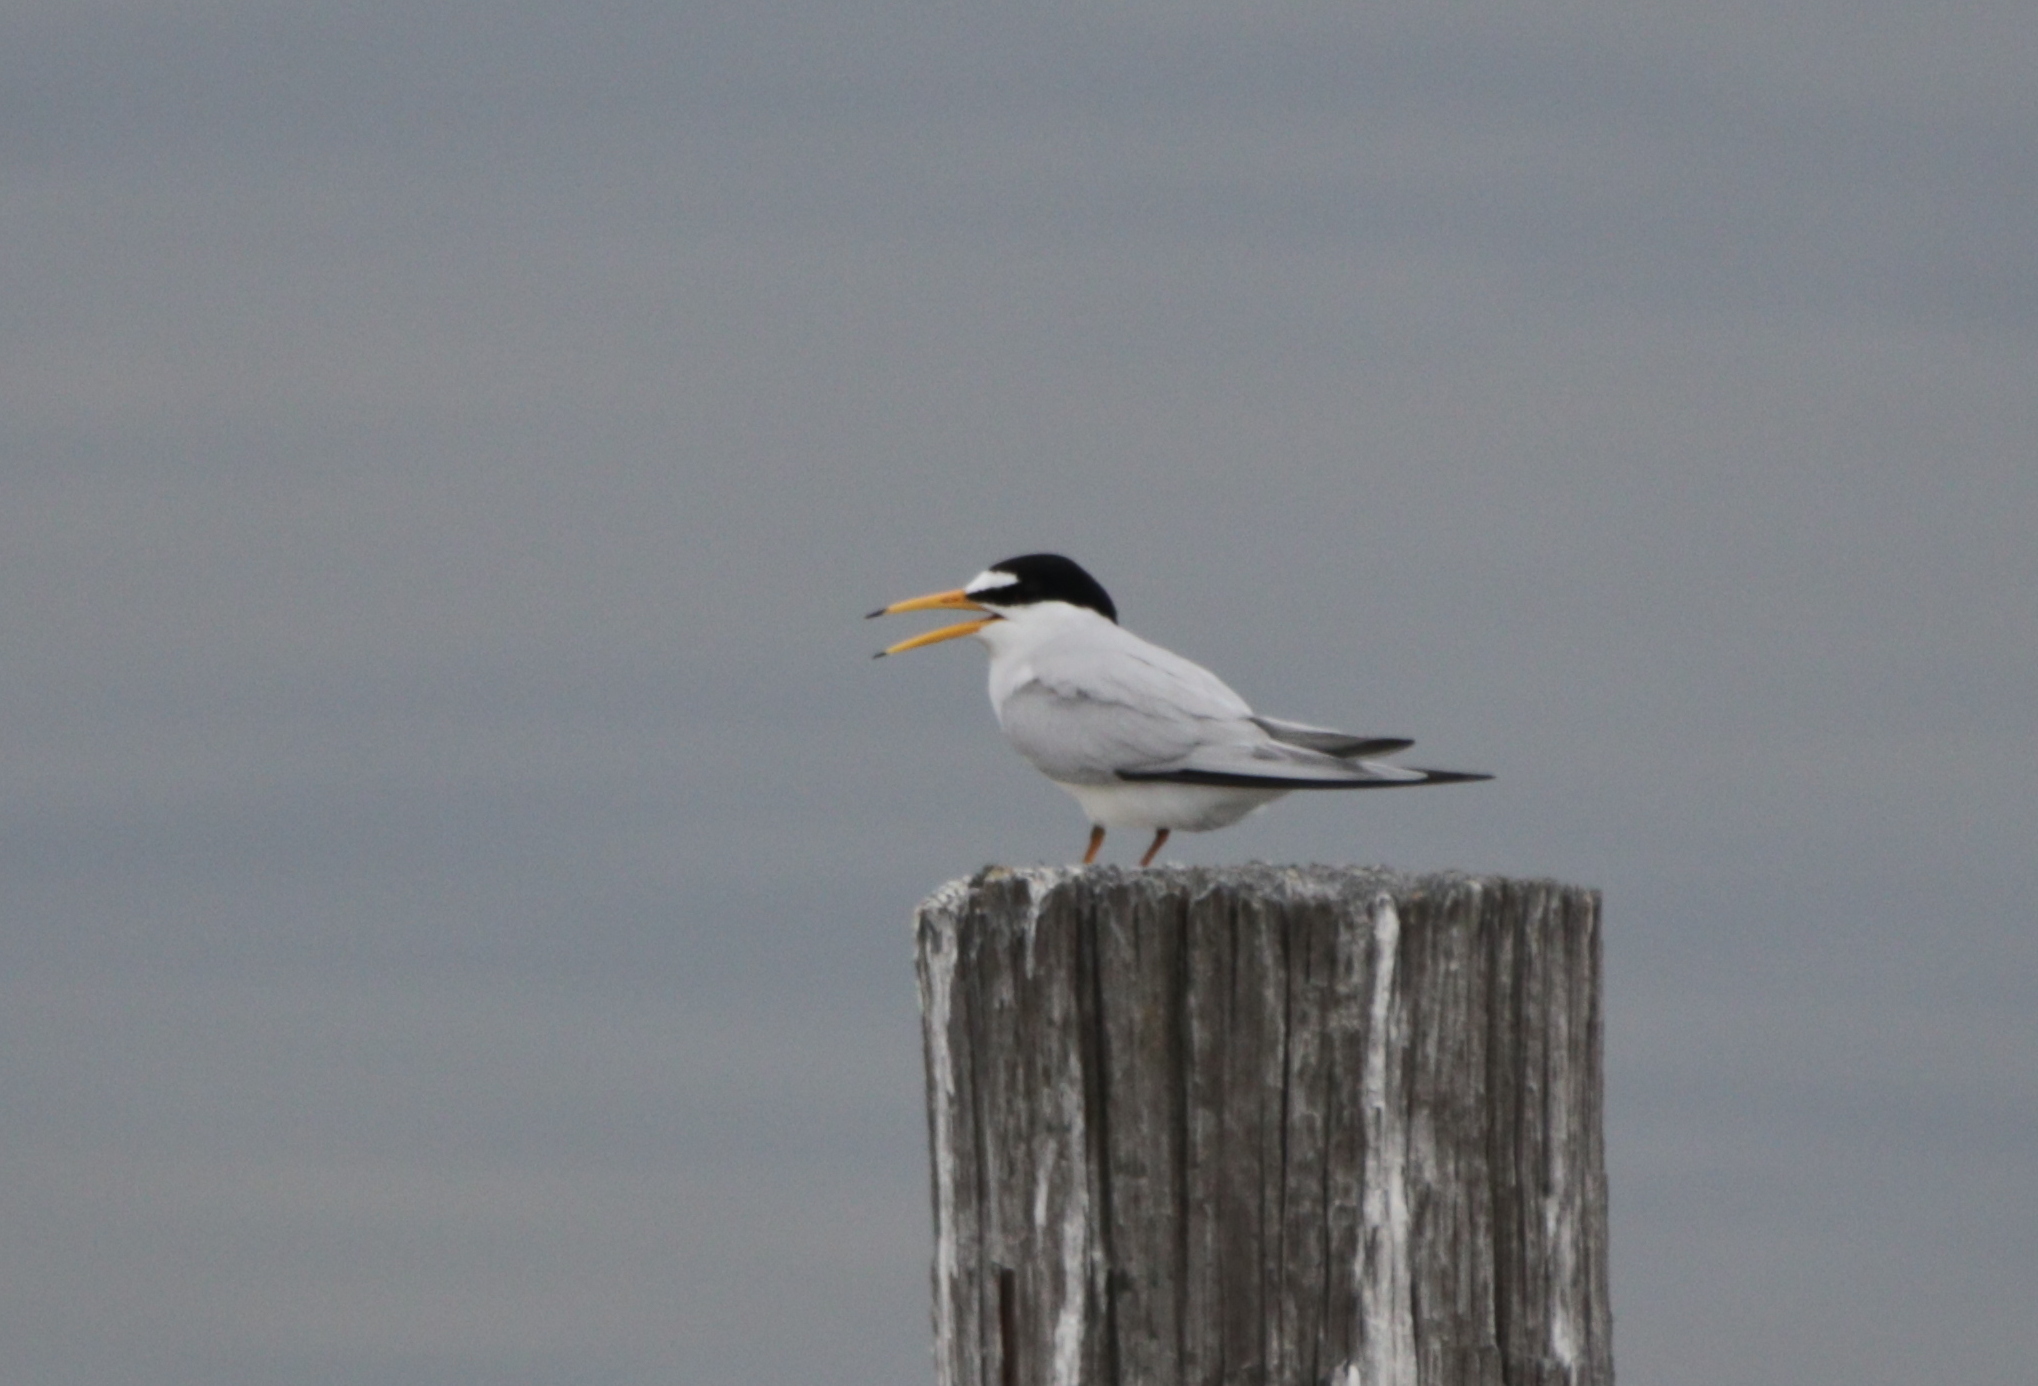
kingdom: Animalia
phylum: Chordata
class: Aves
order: Charadriiformes
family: Laridae
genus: Sternula
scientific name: Sternula antillarum
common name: Least tern
